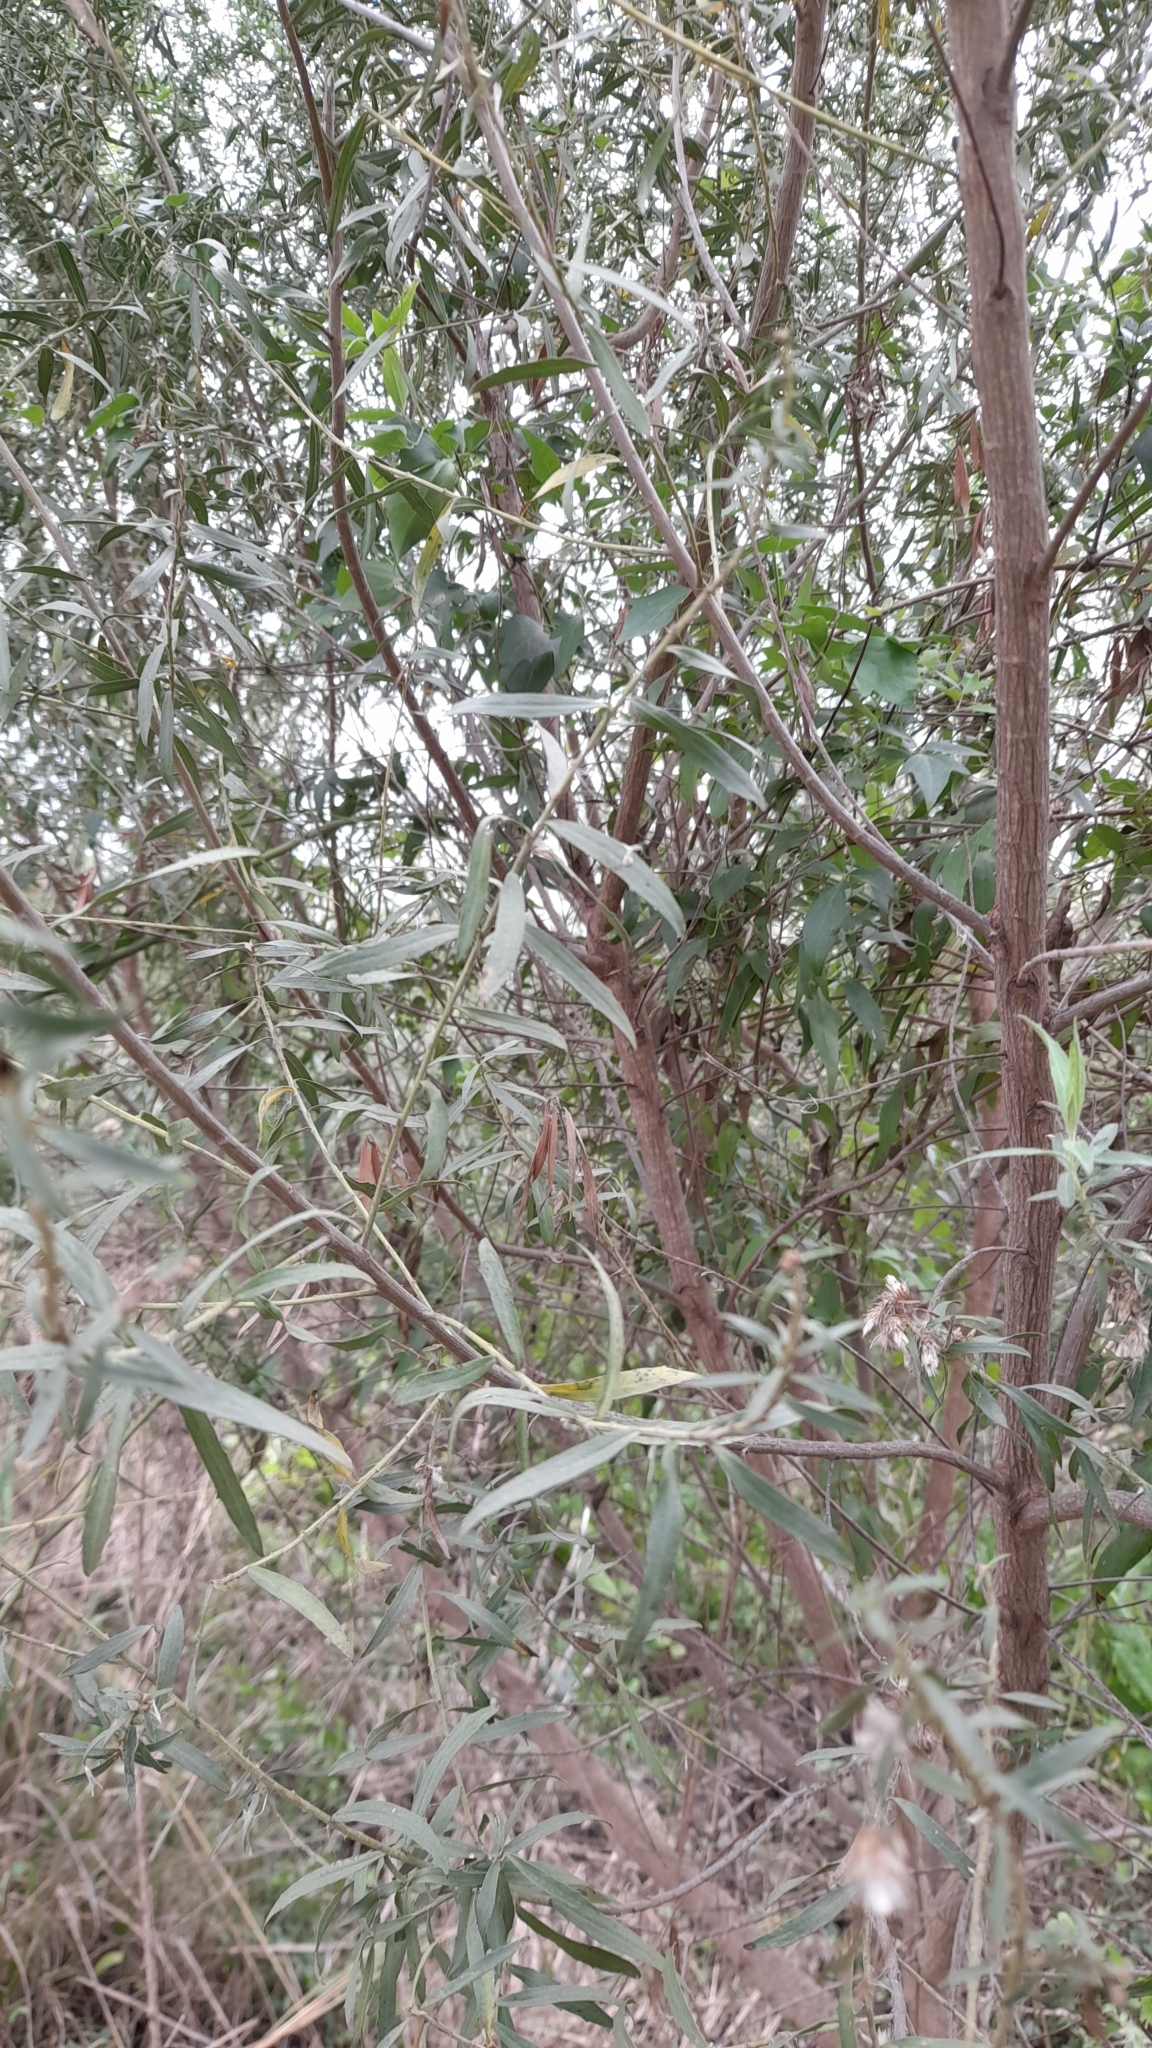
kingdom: Plantae
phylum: Tracheophyta
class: Magnoliopsida
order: Asterales
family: Asteraceae
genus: Baccharis
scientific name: Baccharis dracunculifolia
